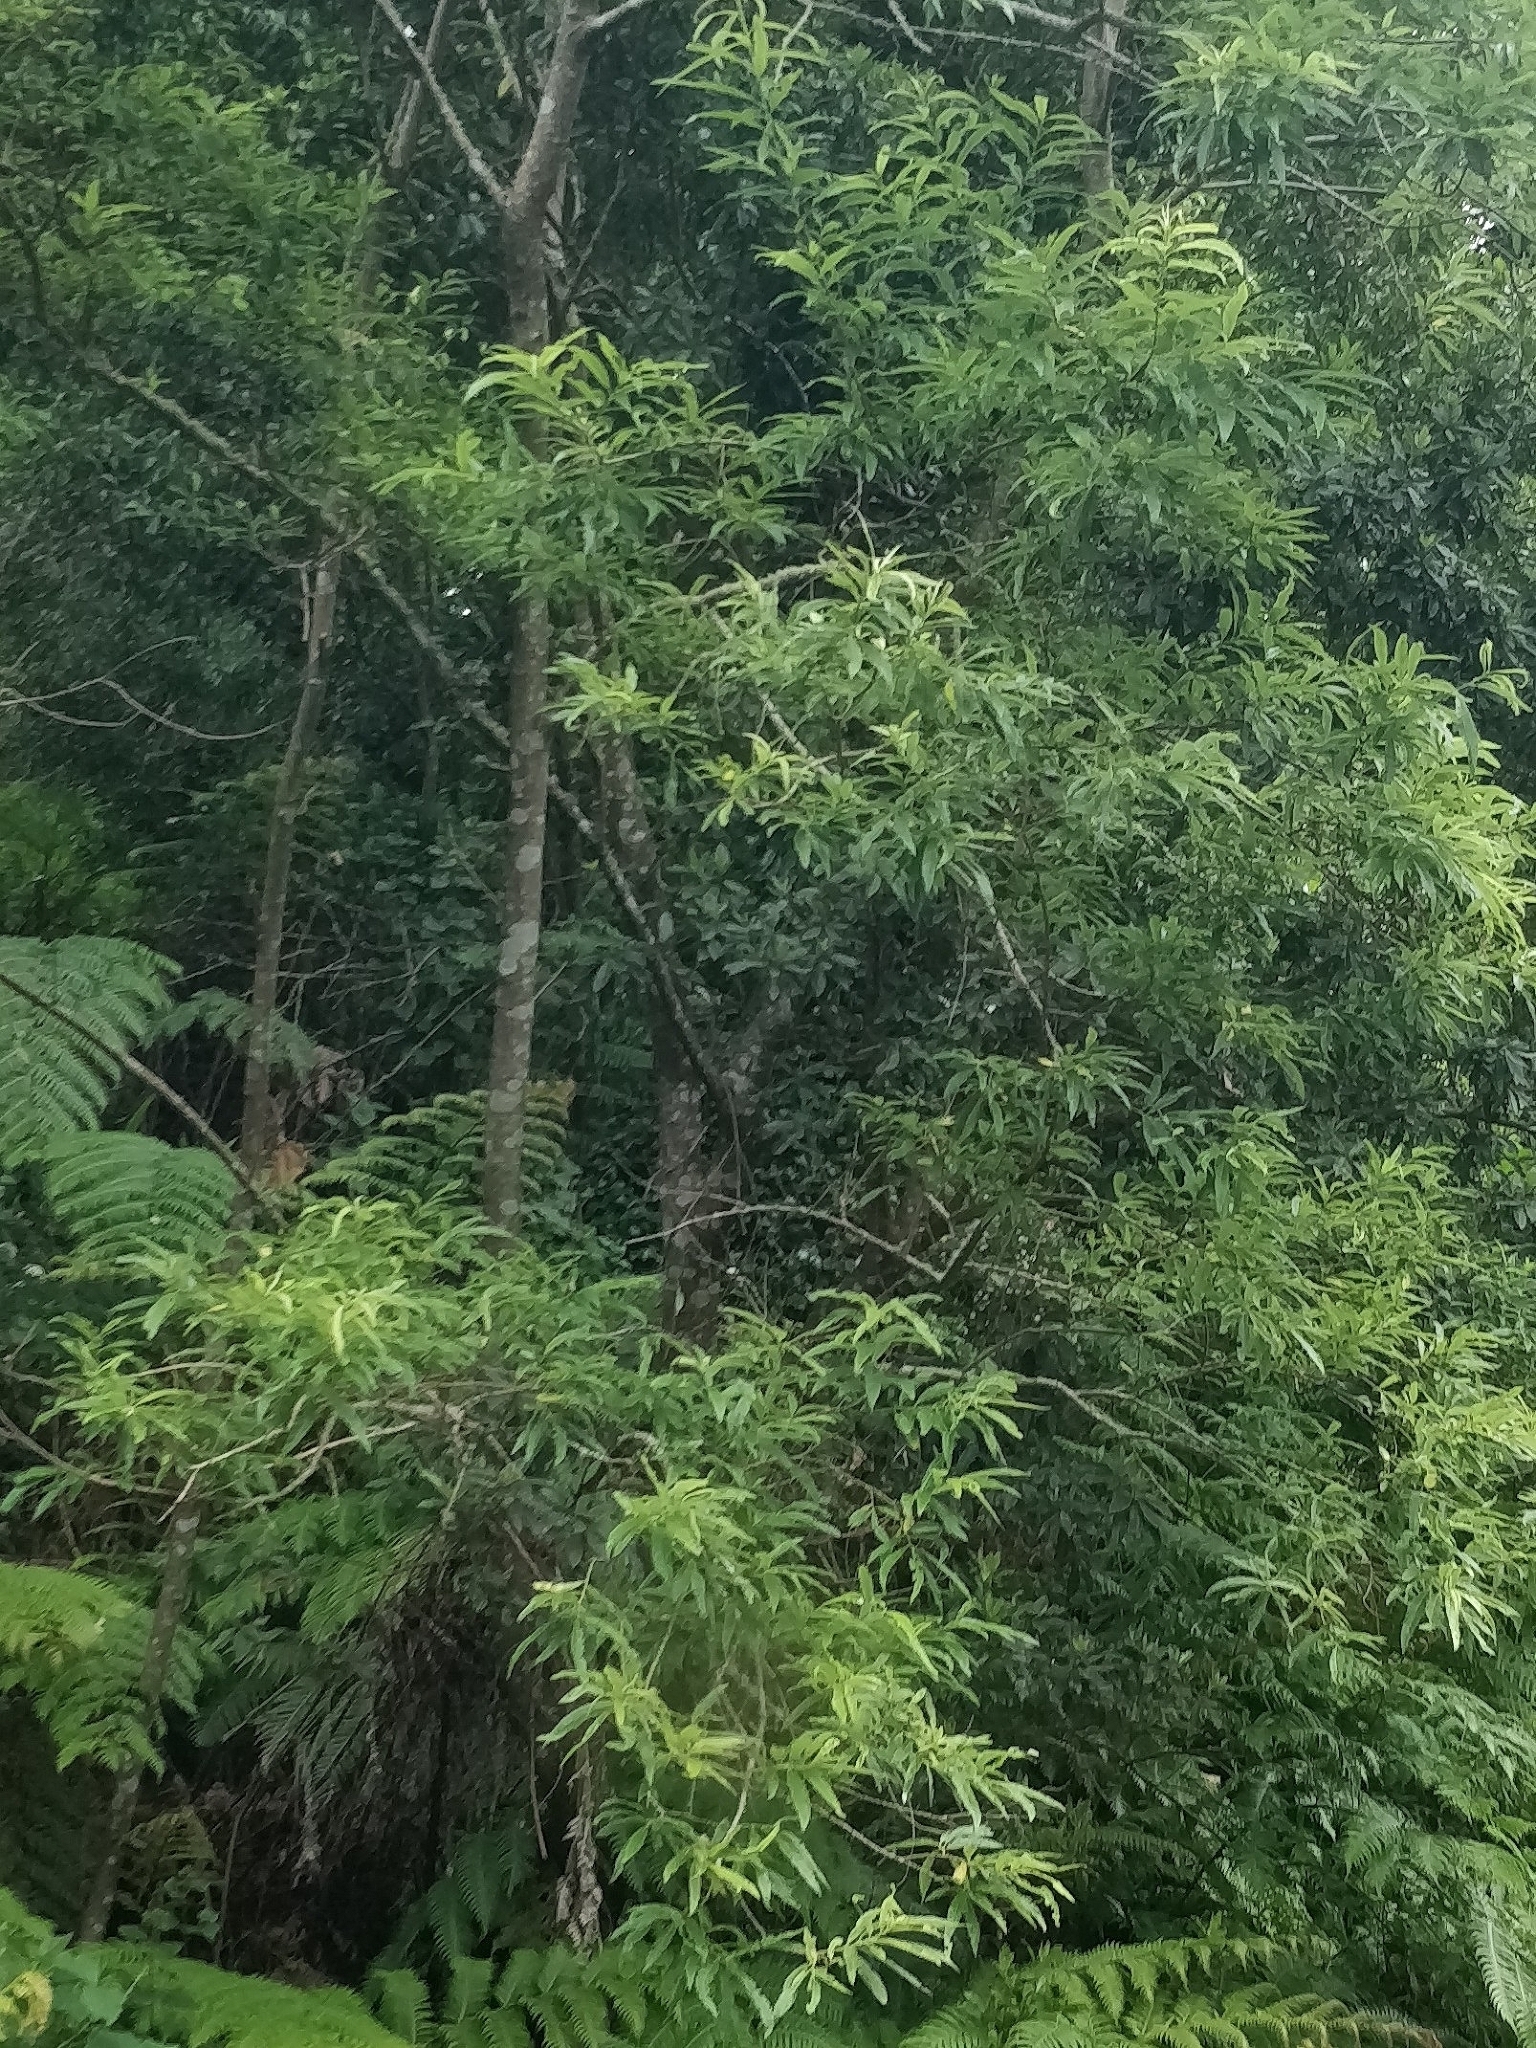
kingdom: Plantae
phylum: Tracheophyta
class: Magnoliopsida
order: Malpighiales
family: Salicaceae
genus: Salix
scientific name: Salix canariensis
